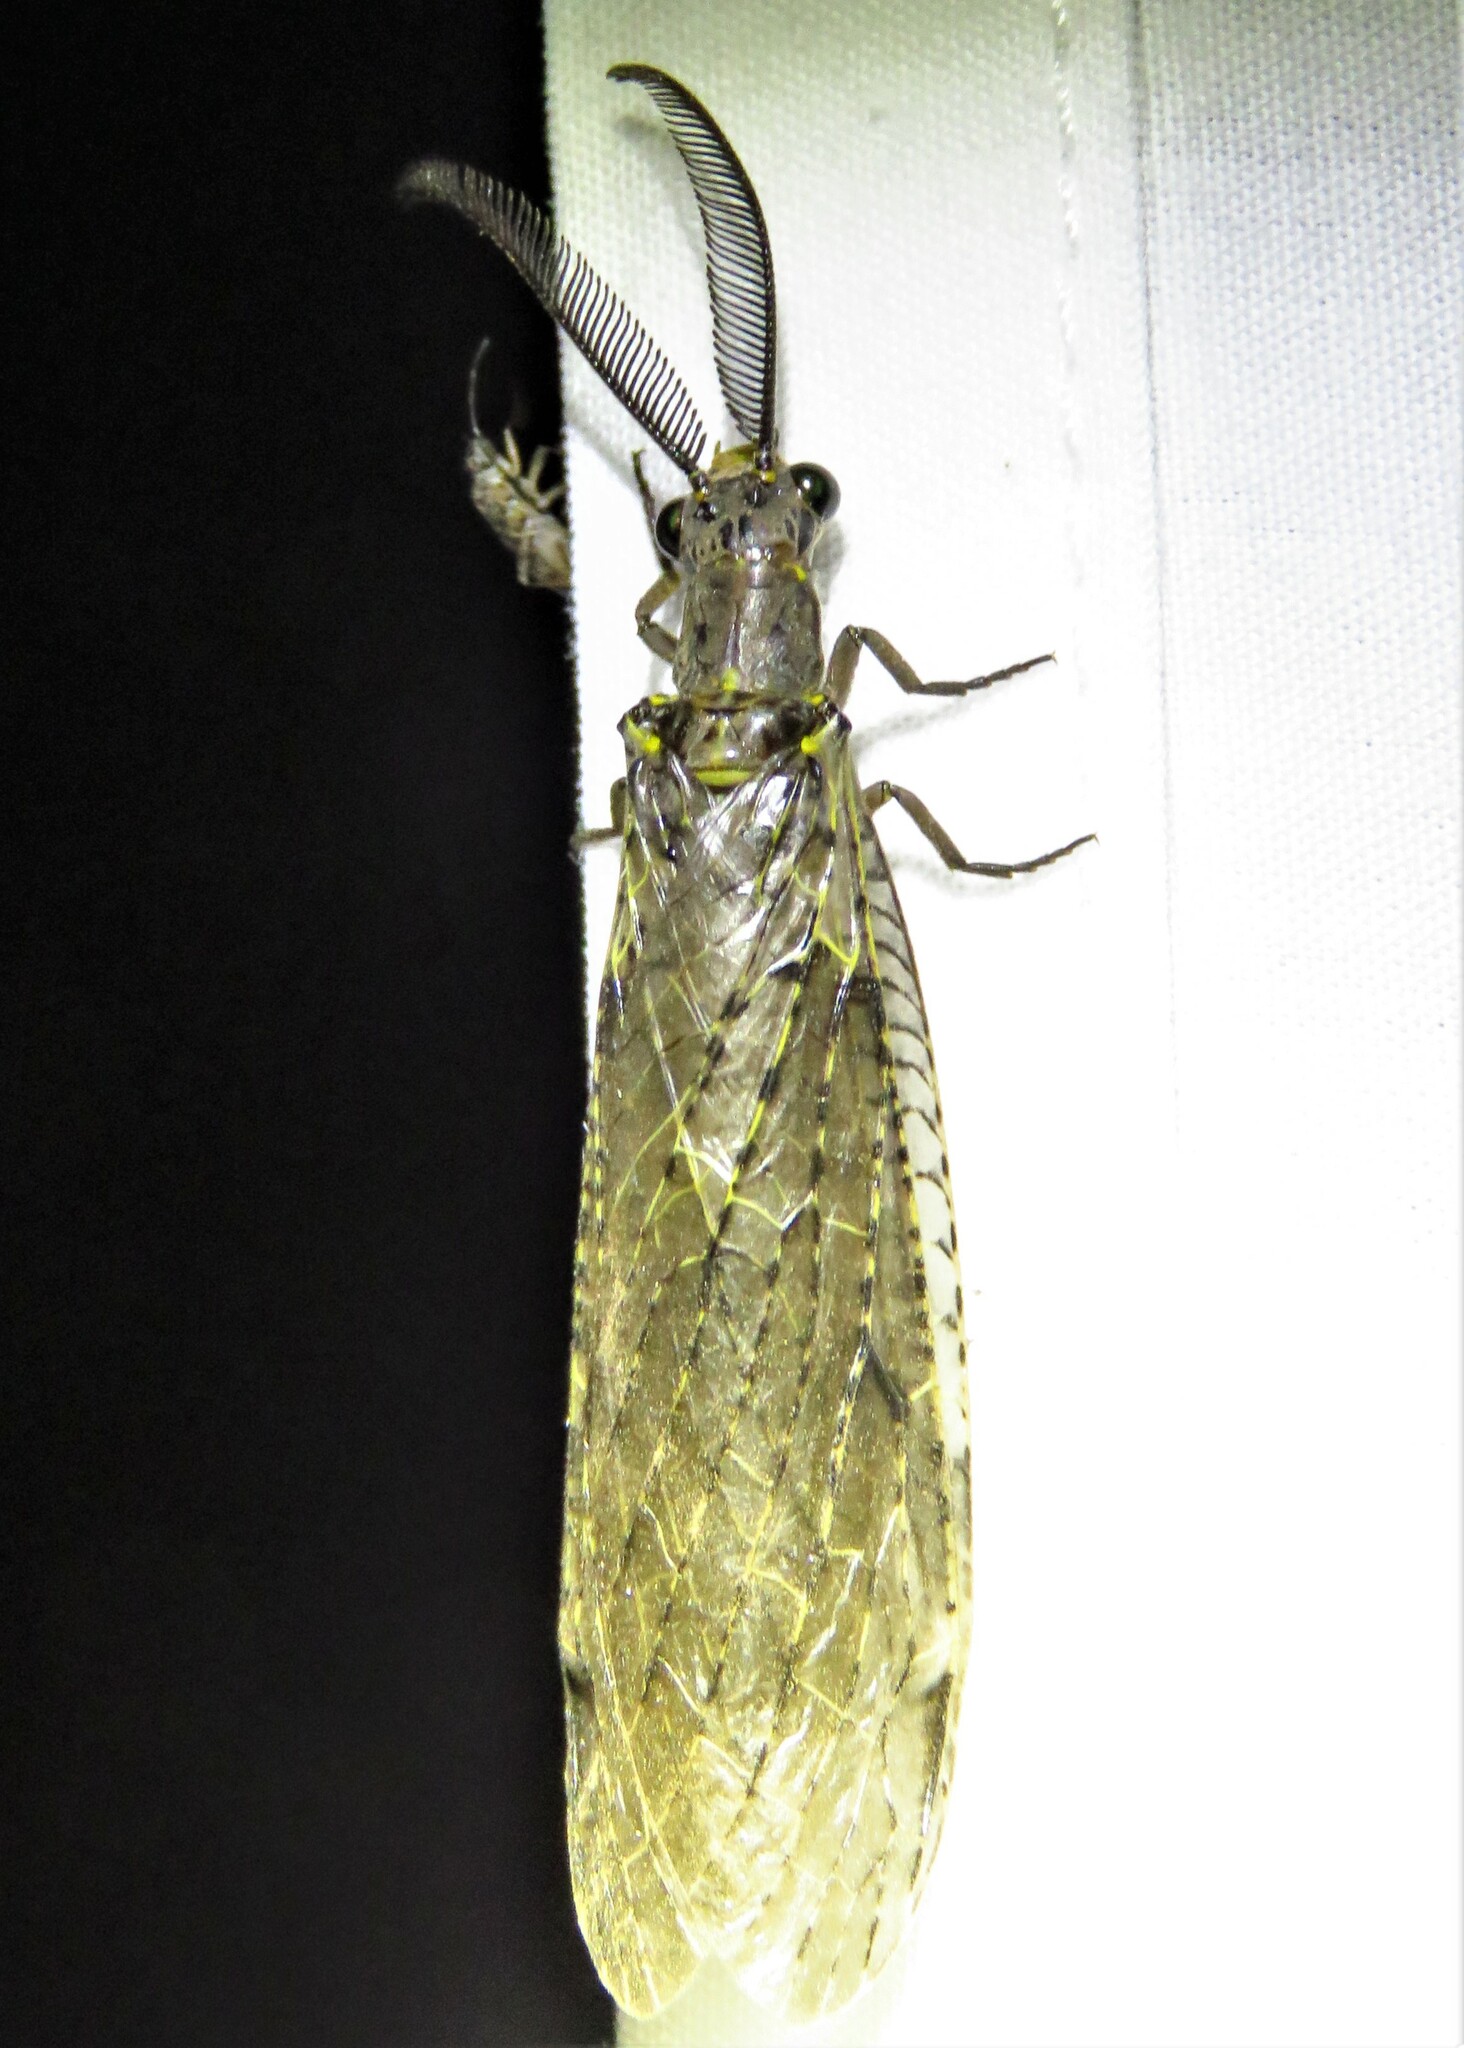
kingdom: Animalia
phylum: Arthropoda
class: Insecta
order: Megaloptera
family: Corydalidae
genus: Chauliodes
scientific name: Chauliodes rastricornis
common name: Spring fishfly
